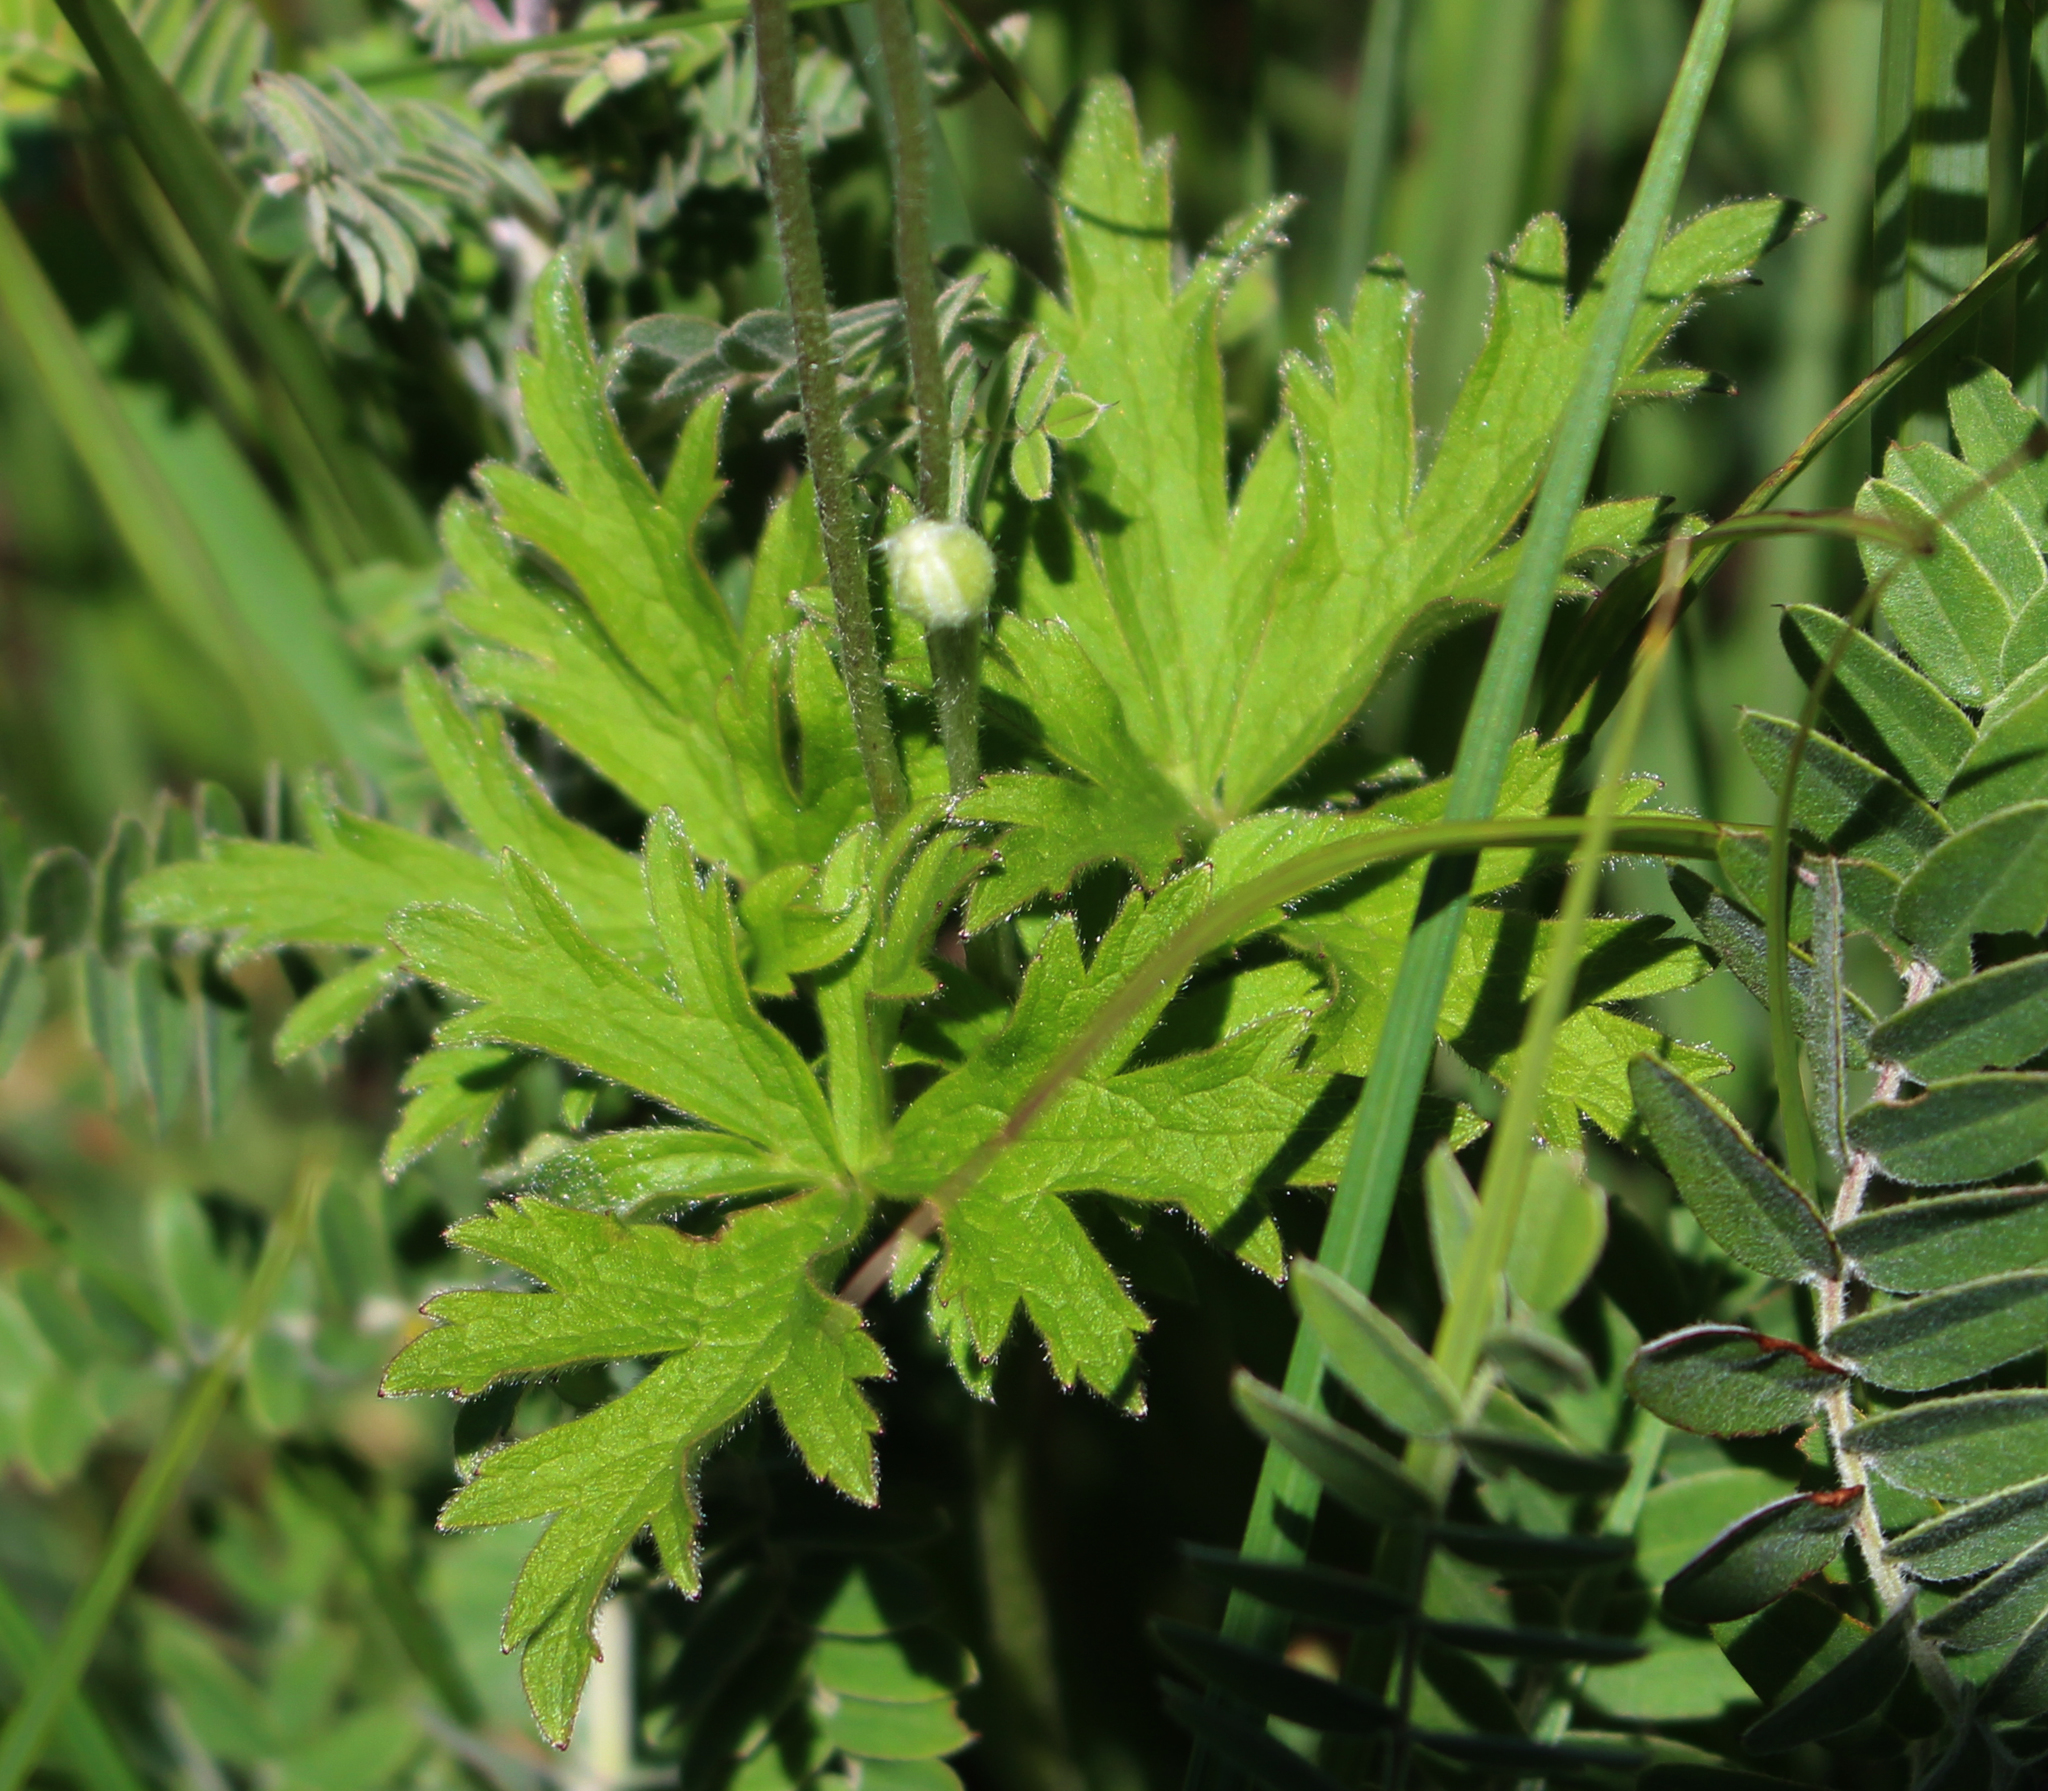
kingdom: Plantae
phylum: Tracheophyta
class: Magnoliopsida
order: Ranunculales
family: Ranunculaceae
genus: Anemone
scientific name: Anemone cylindrica
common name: Candle anemone
